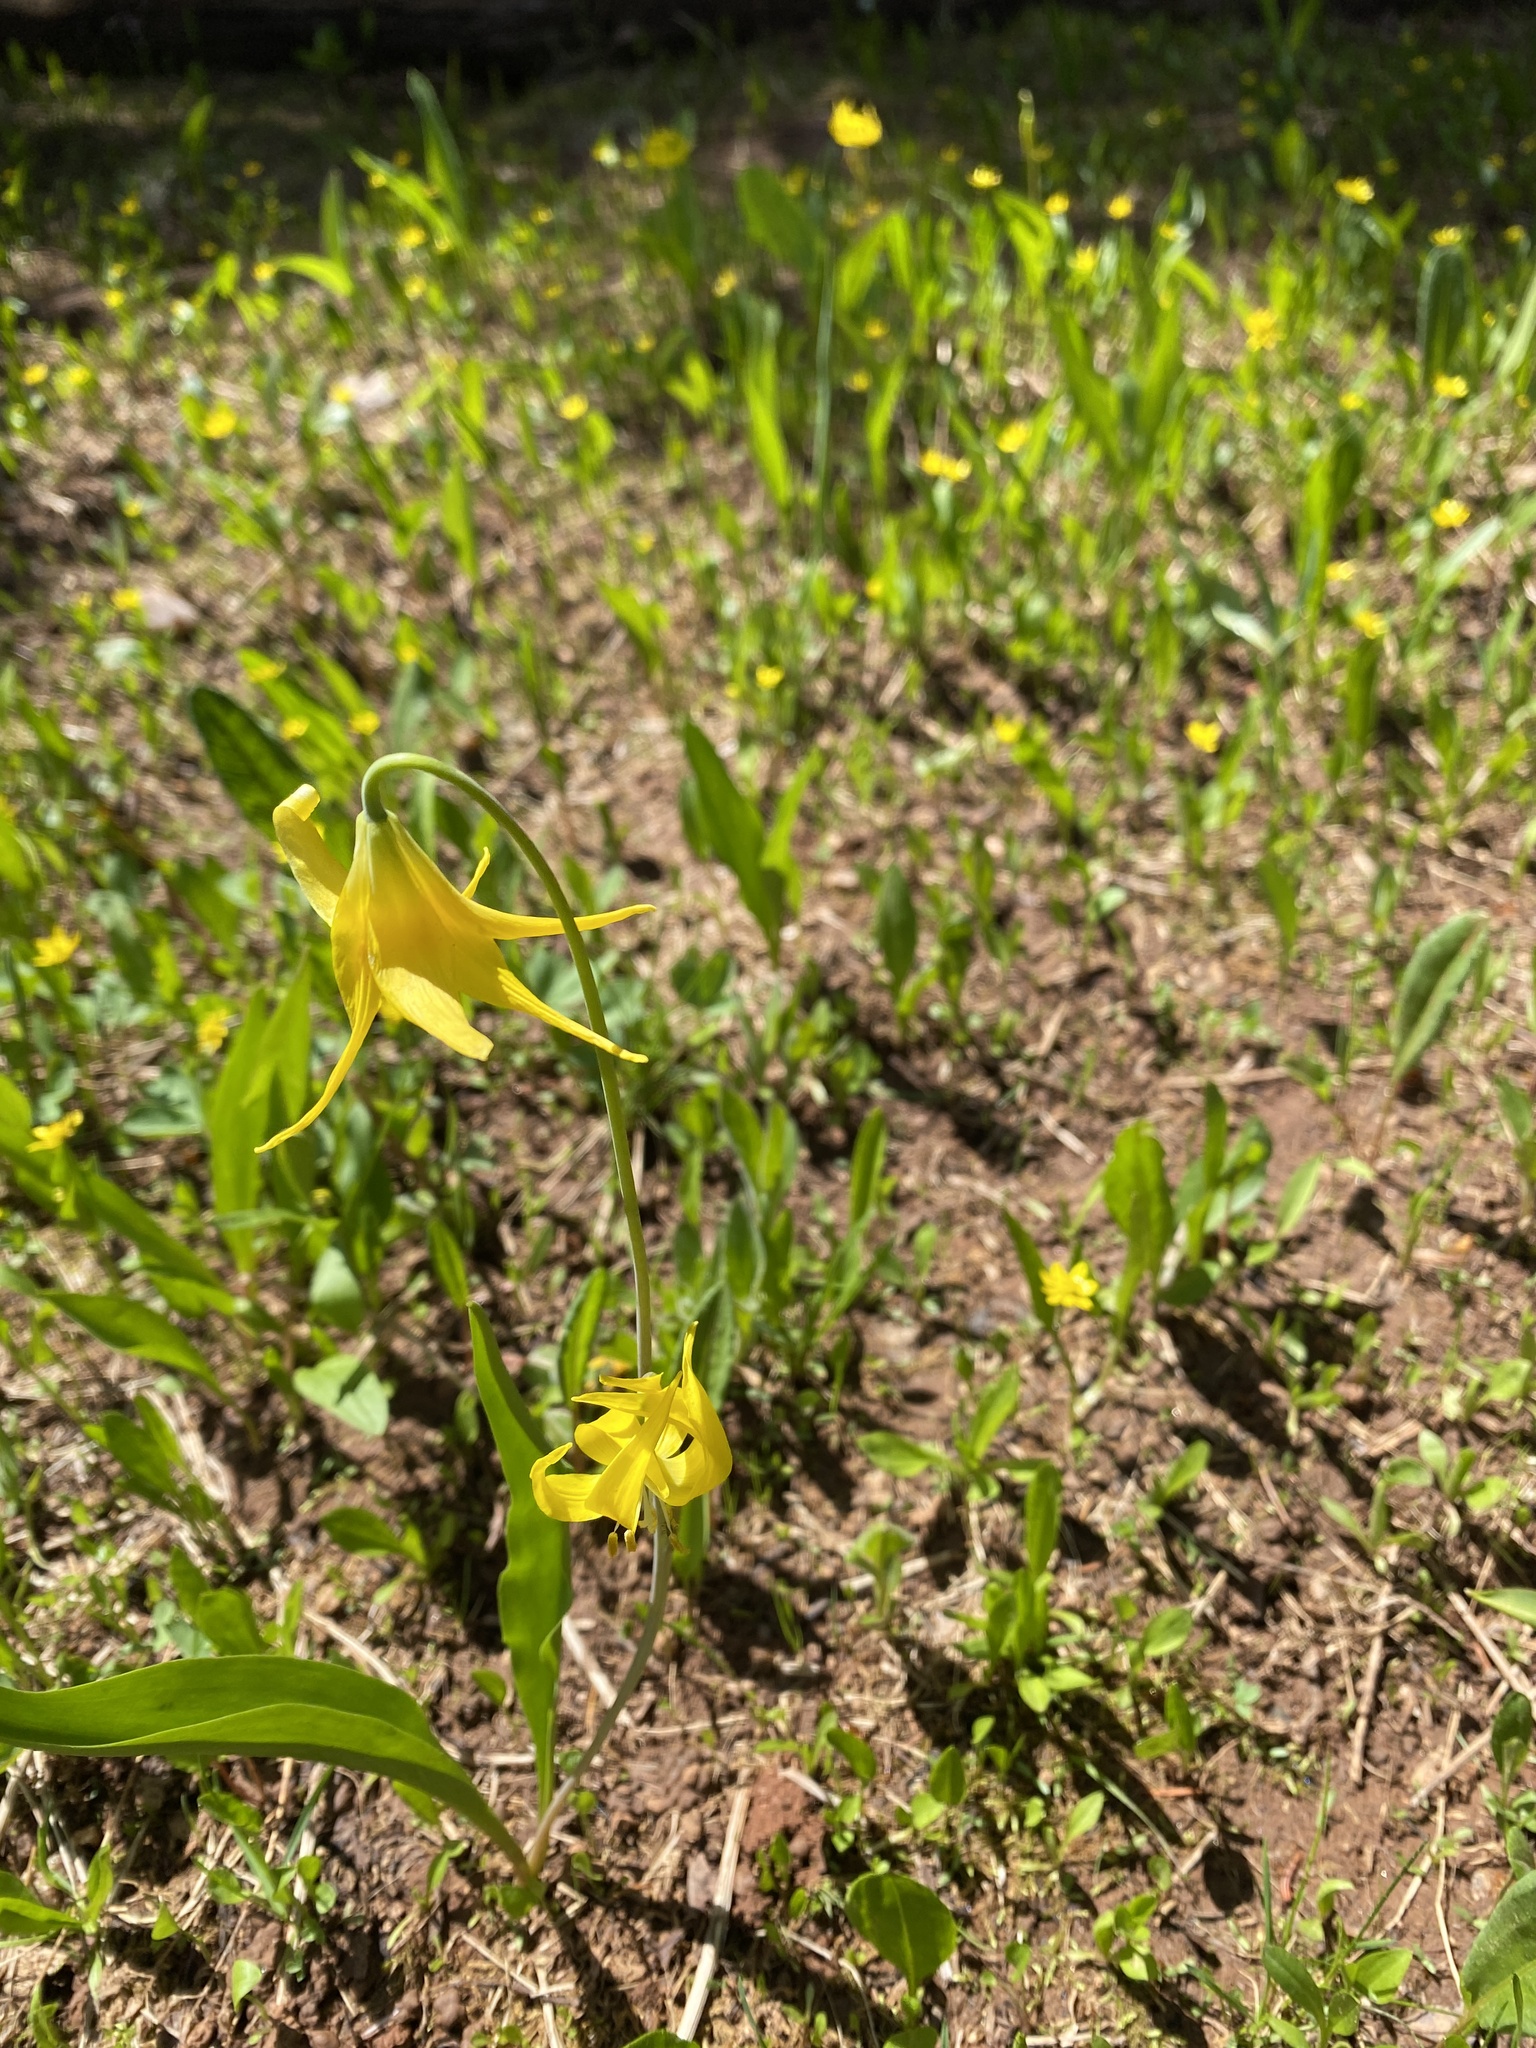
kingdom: Plantae
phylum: Tracheophyta
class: Liliopsida
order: Liliales
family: Liliaceae
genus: Erythronium
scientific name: Erythronium grandiflorum
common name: Avalanche-lily
